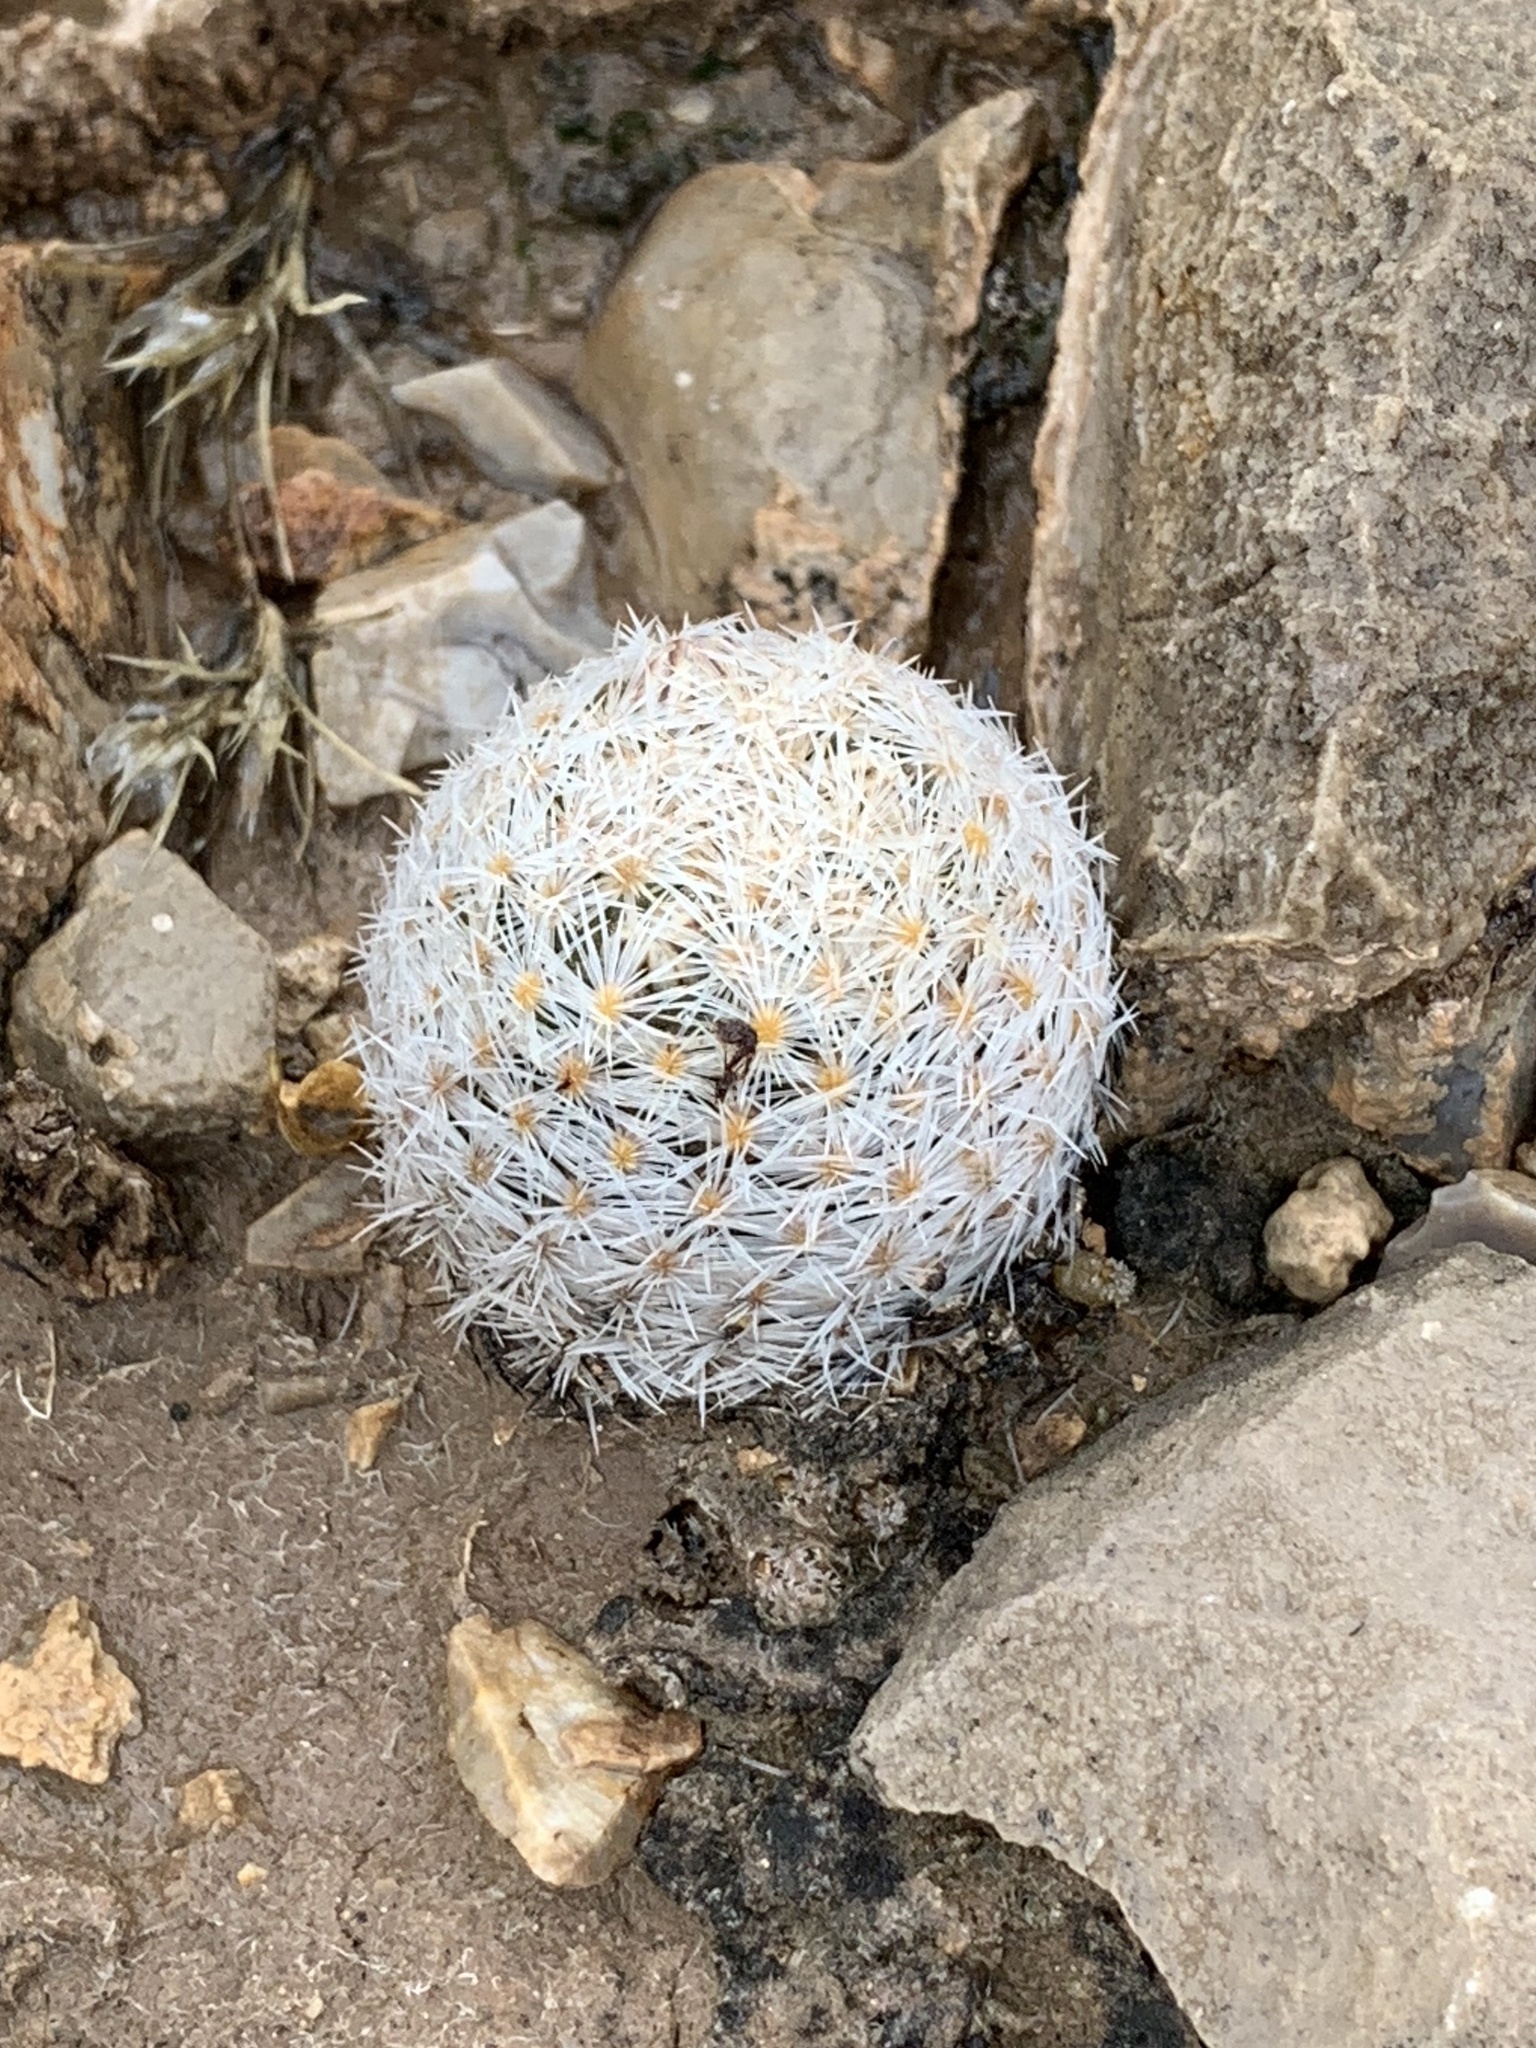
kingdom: Plantae
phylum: Tracheophyta
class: Magnoliopsida
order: Caryophyllales
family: Cactaceae
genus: Mammillaria
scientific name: Mammillaria lasiacantha
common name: Lace-spine nipple cactus
